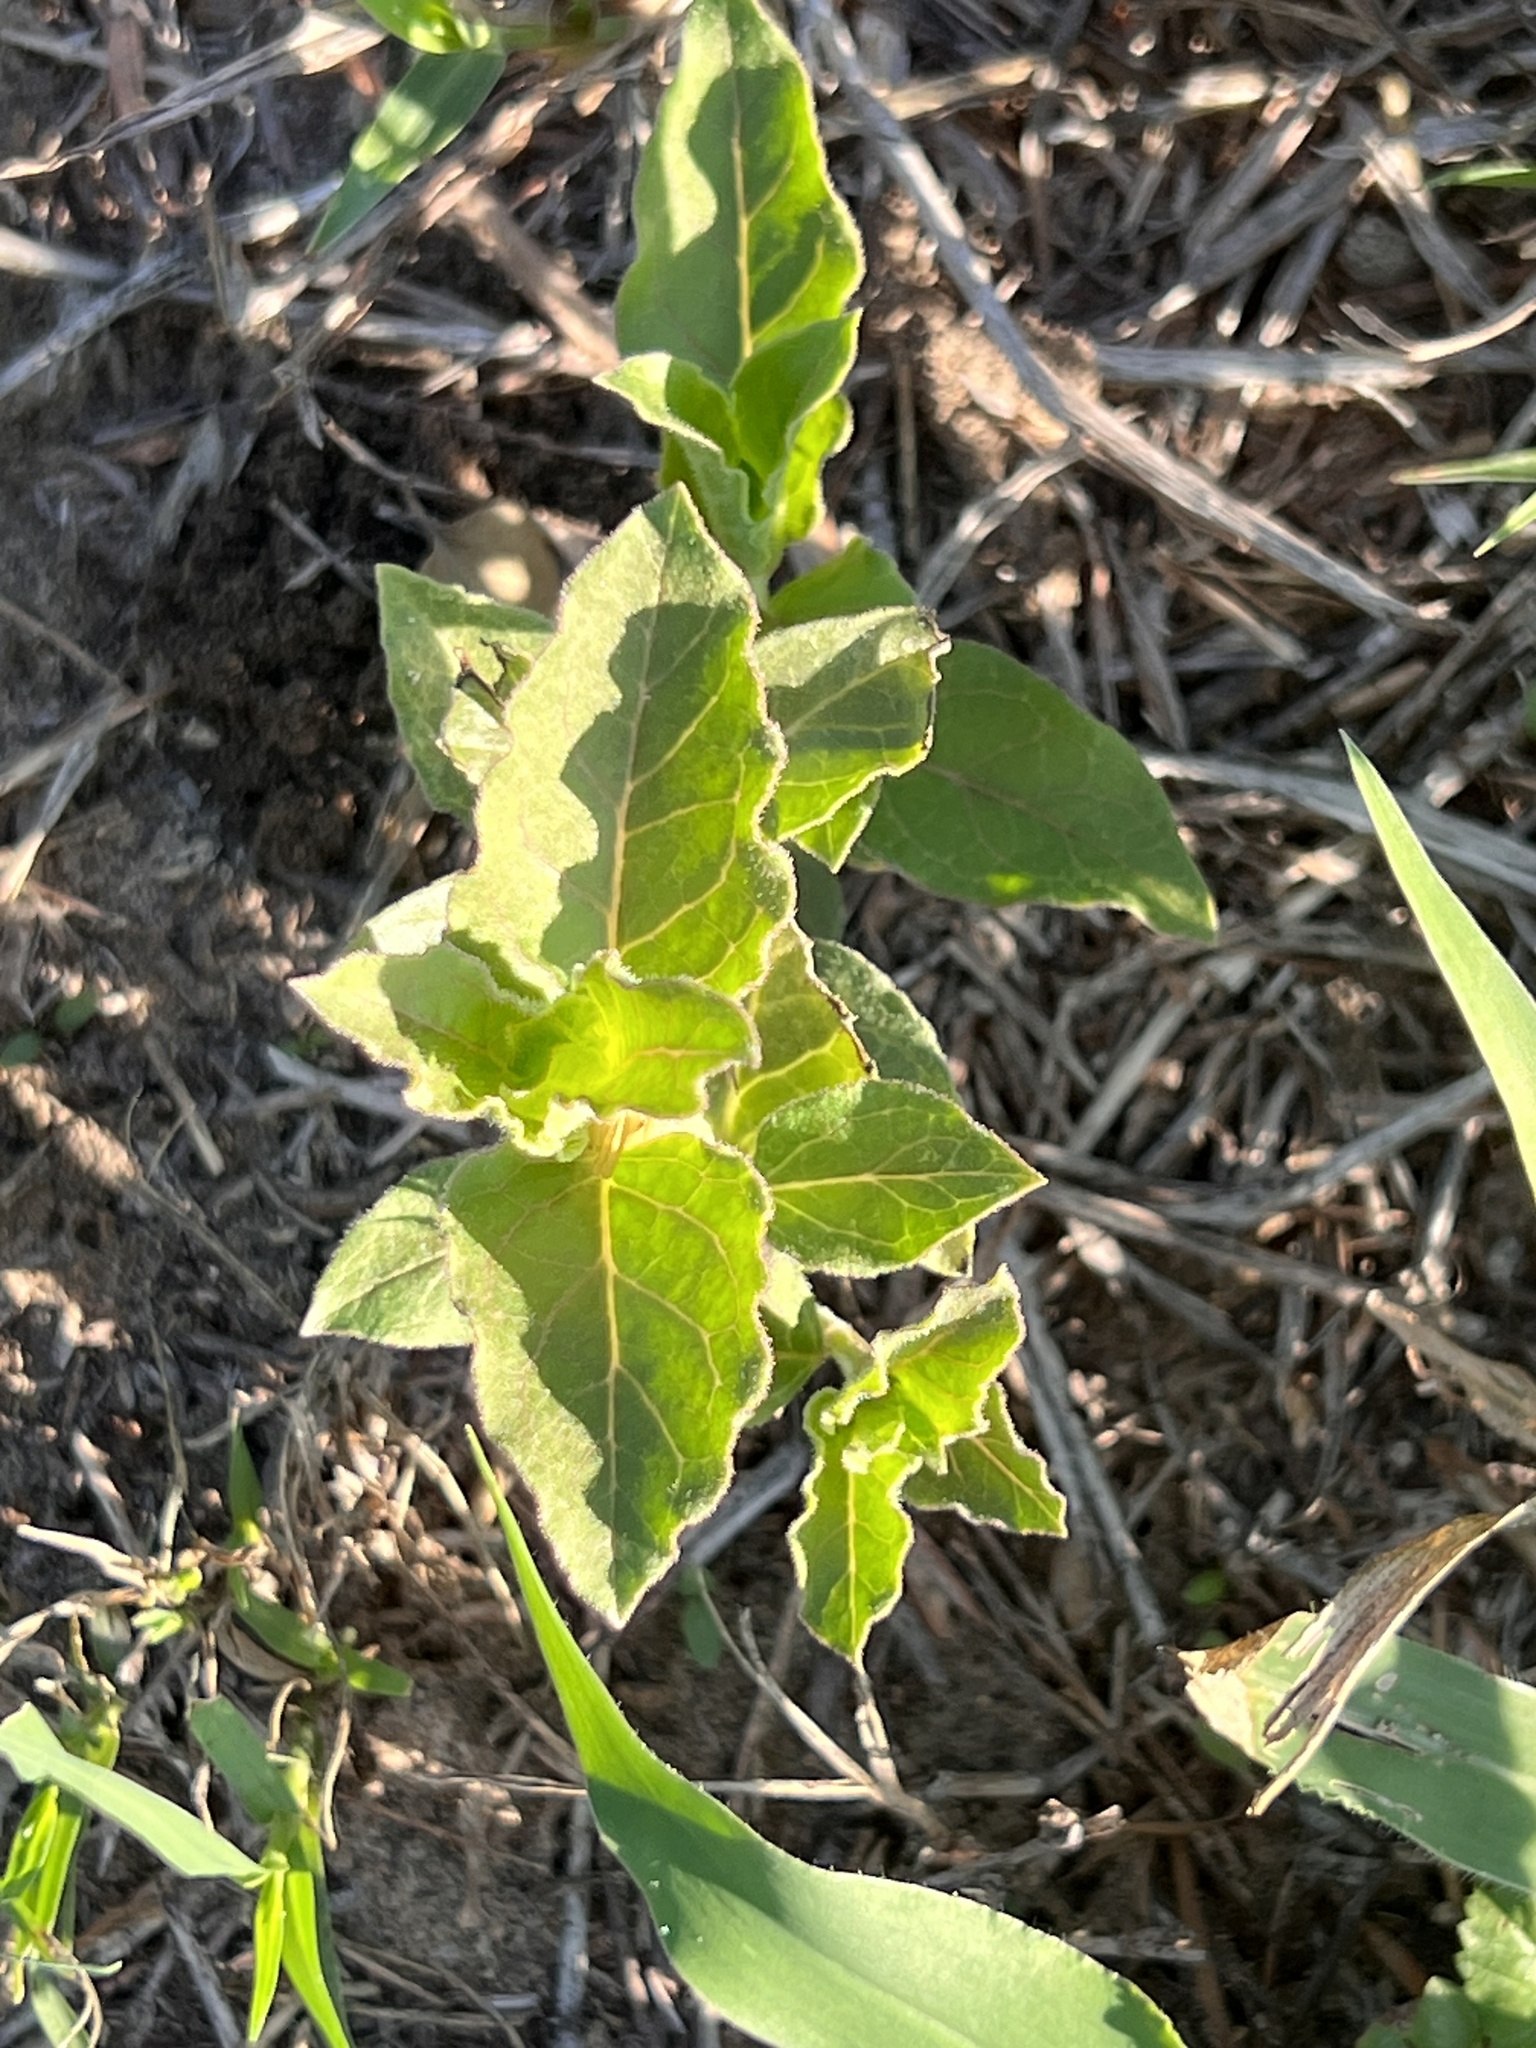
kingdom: Plantae
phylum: Tracheophyta
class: Magnoliopsida
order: Gentianales
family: Apocynaceae
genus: Asclepias
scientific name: Asclepias oenotheroides
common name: Zizotes milkweed
